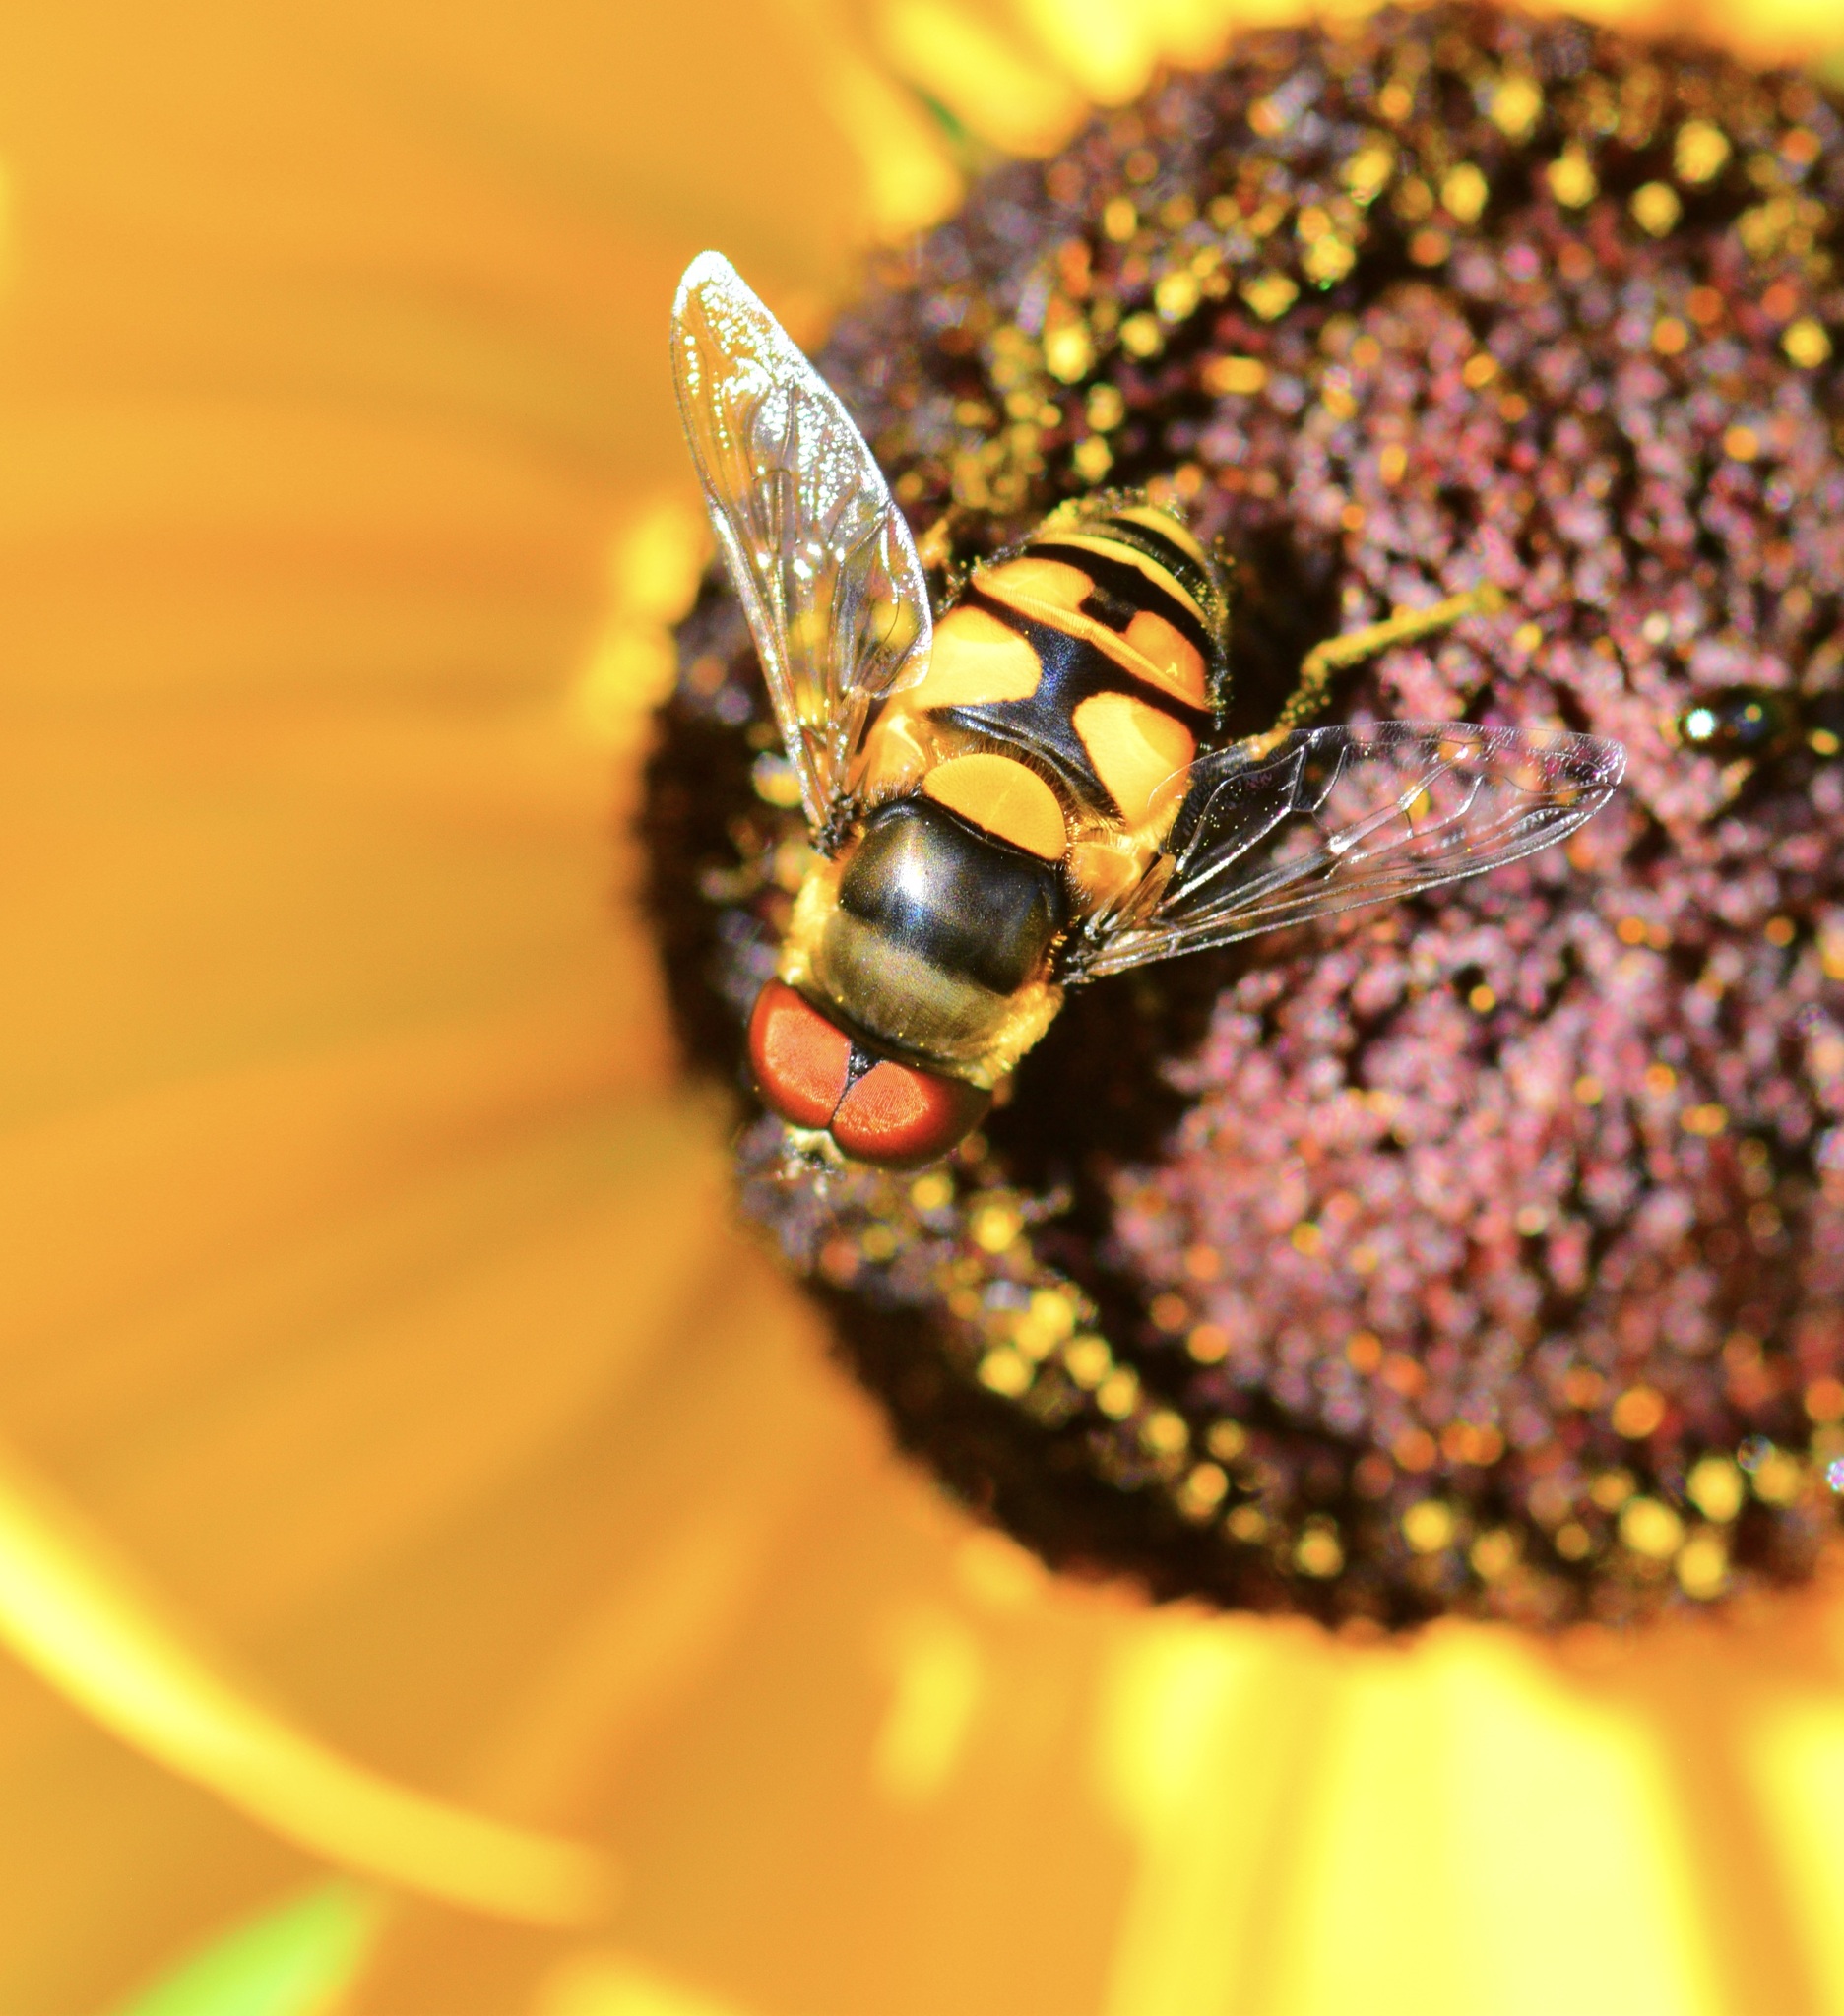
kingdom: Animalia
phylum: Arthropoda
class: Insecta
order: Diptera
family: Syrphidae
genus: Eristalis
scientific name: Eristalis transversa
